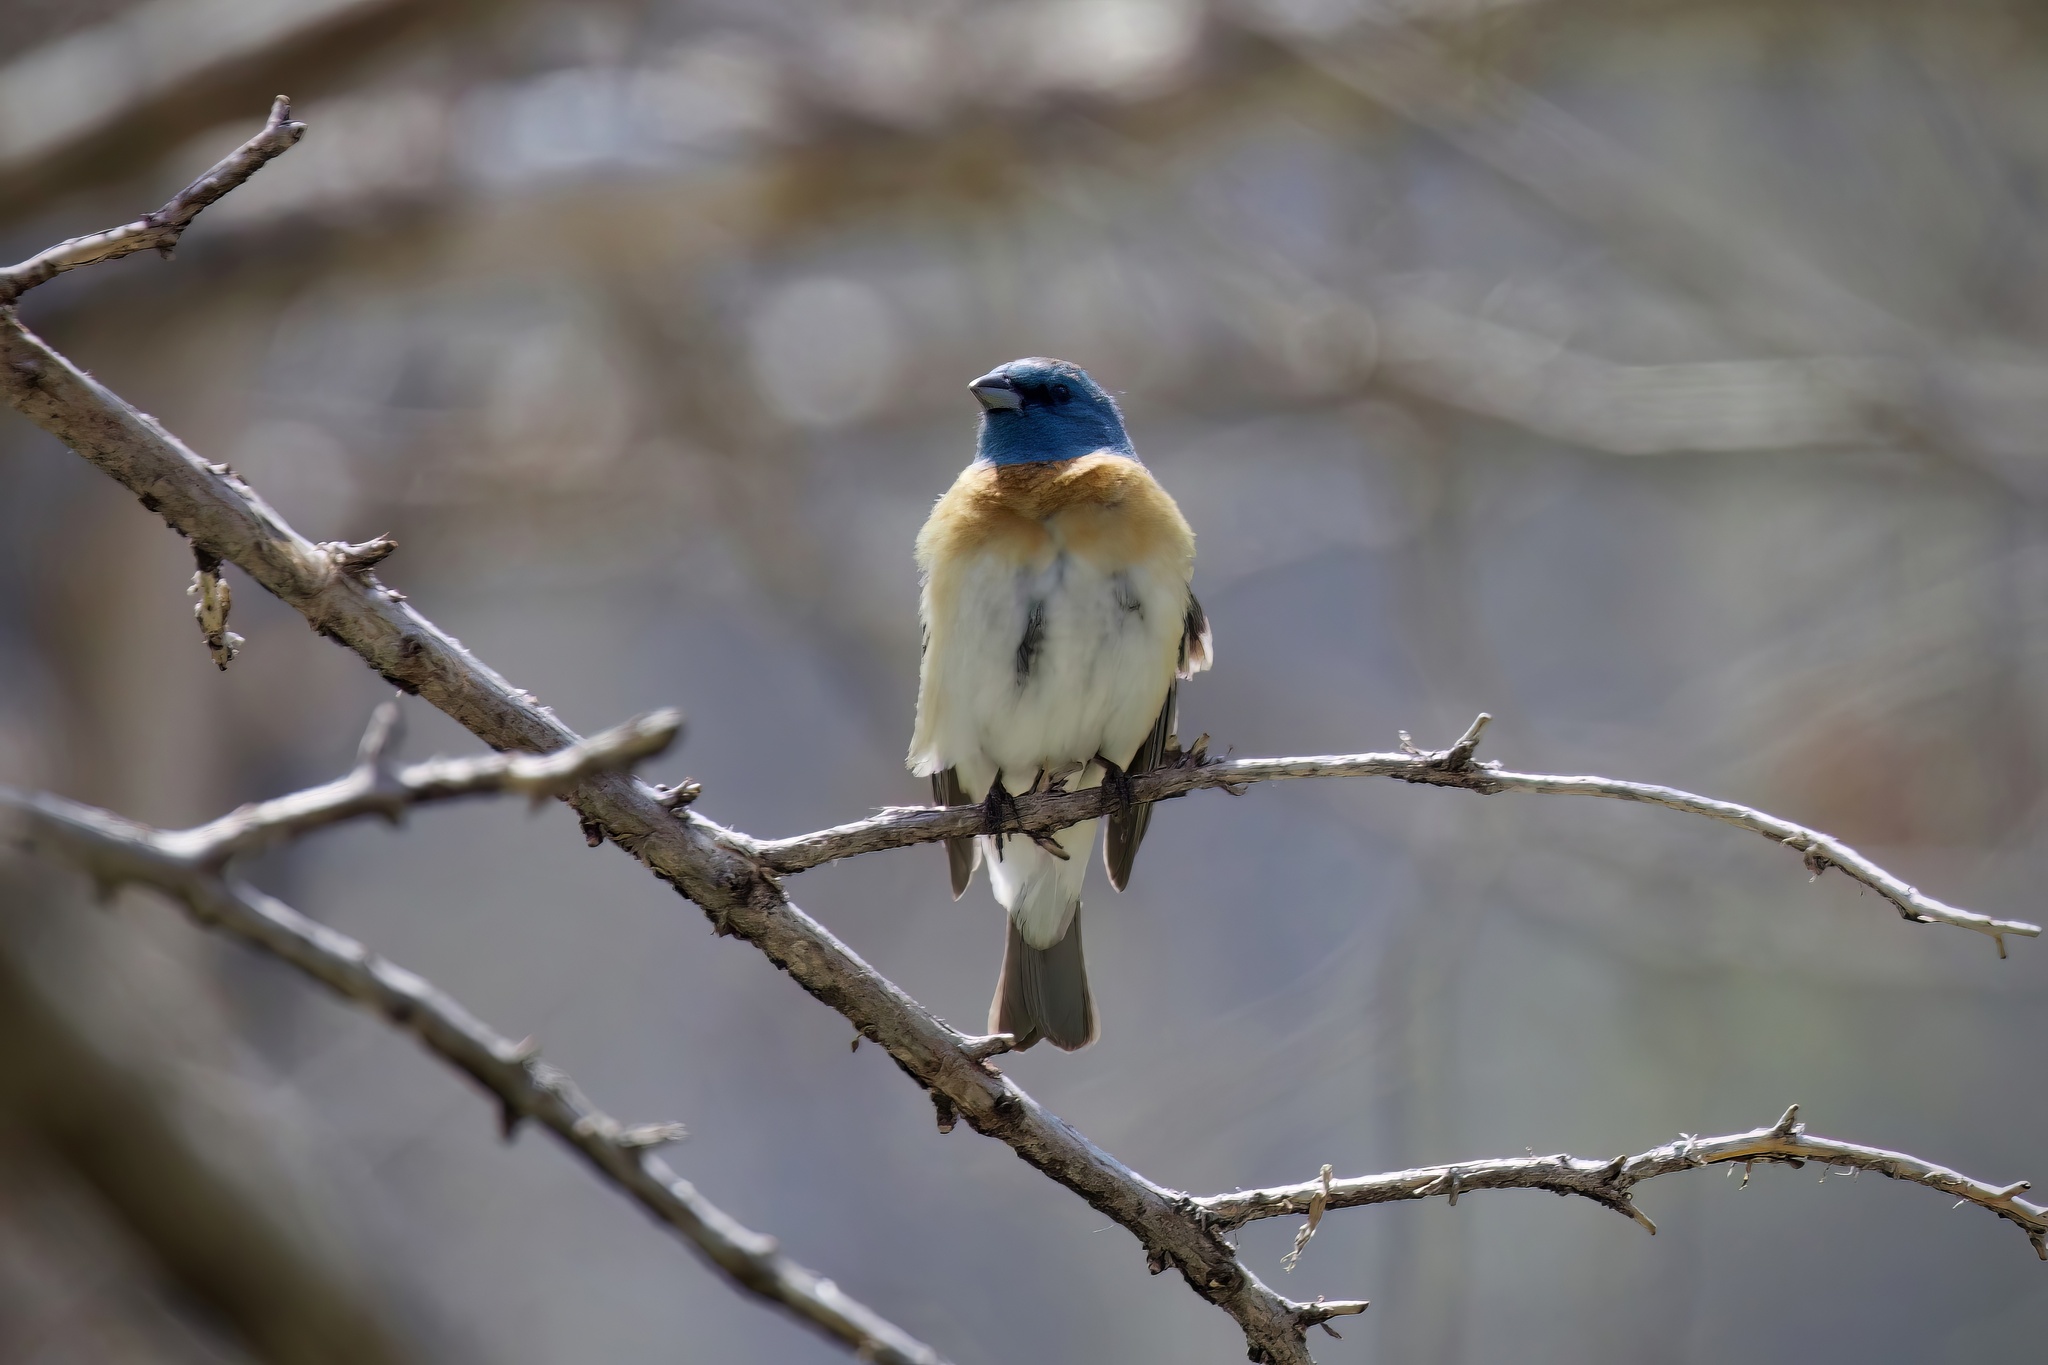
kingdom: Animalia
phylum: Chordata
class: Aves
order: Passeriformes
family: Cardinalidae
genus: Passerina
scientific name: Passerina amoena
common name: Lazuli bunting
